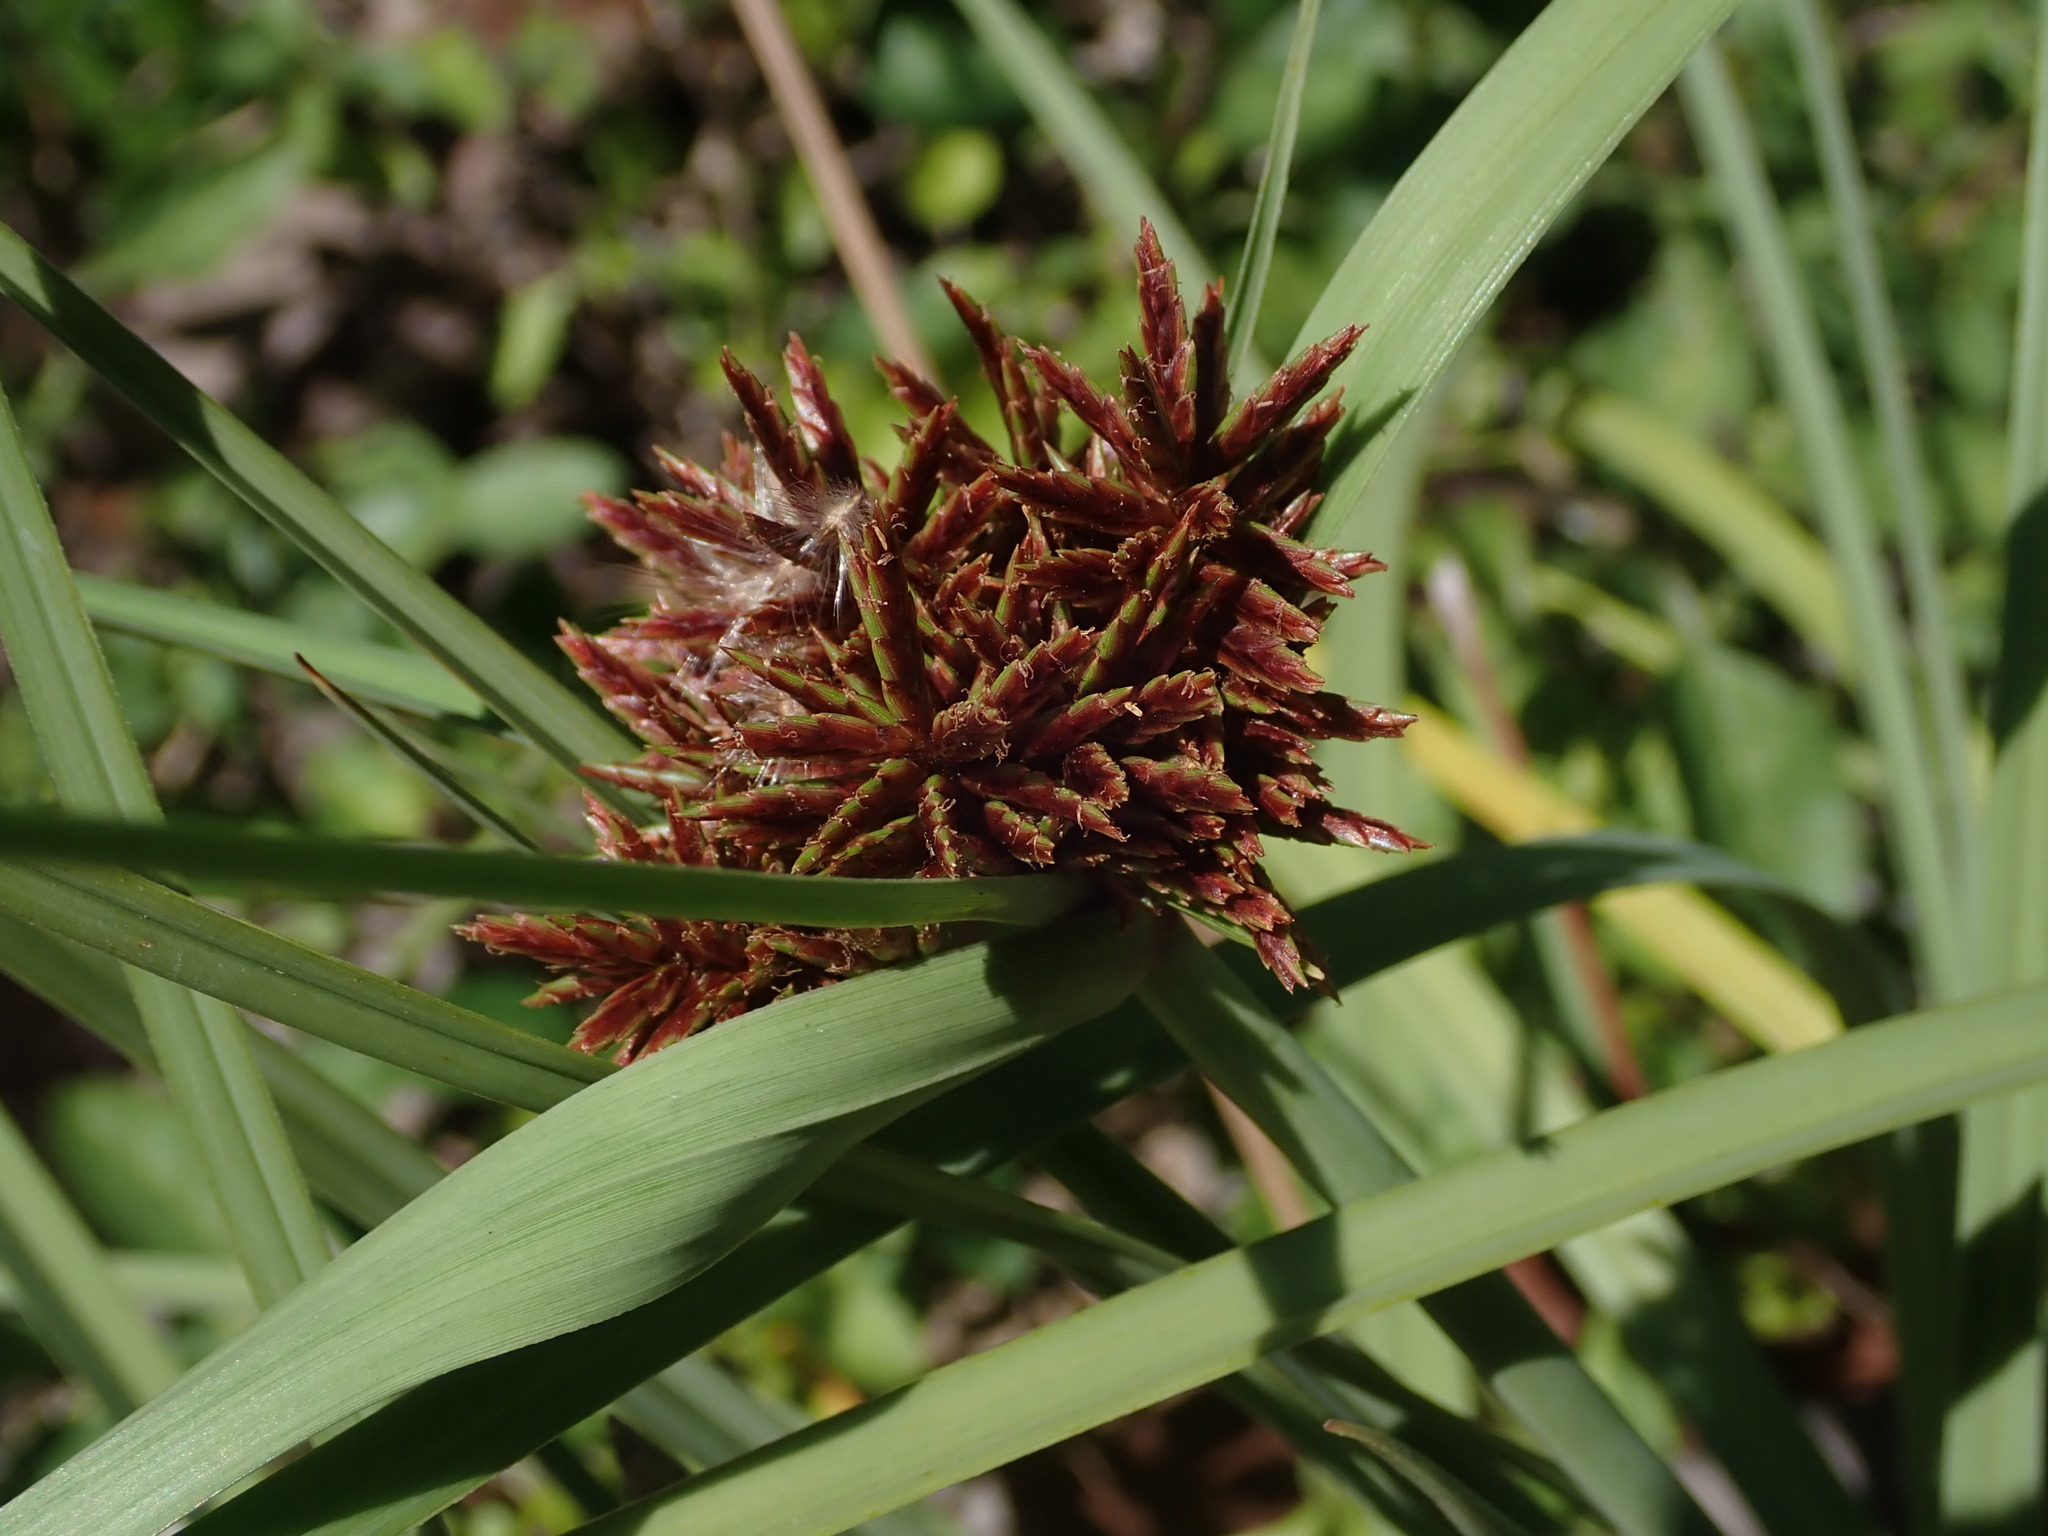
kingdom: Plantae
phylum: Tracheophyta
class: Liliopsida
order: Poales
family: Cyperaceae
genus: Cyperus
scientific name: Cyperus planifolius
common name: Bullgrass
